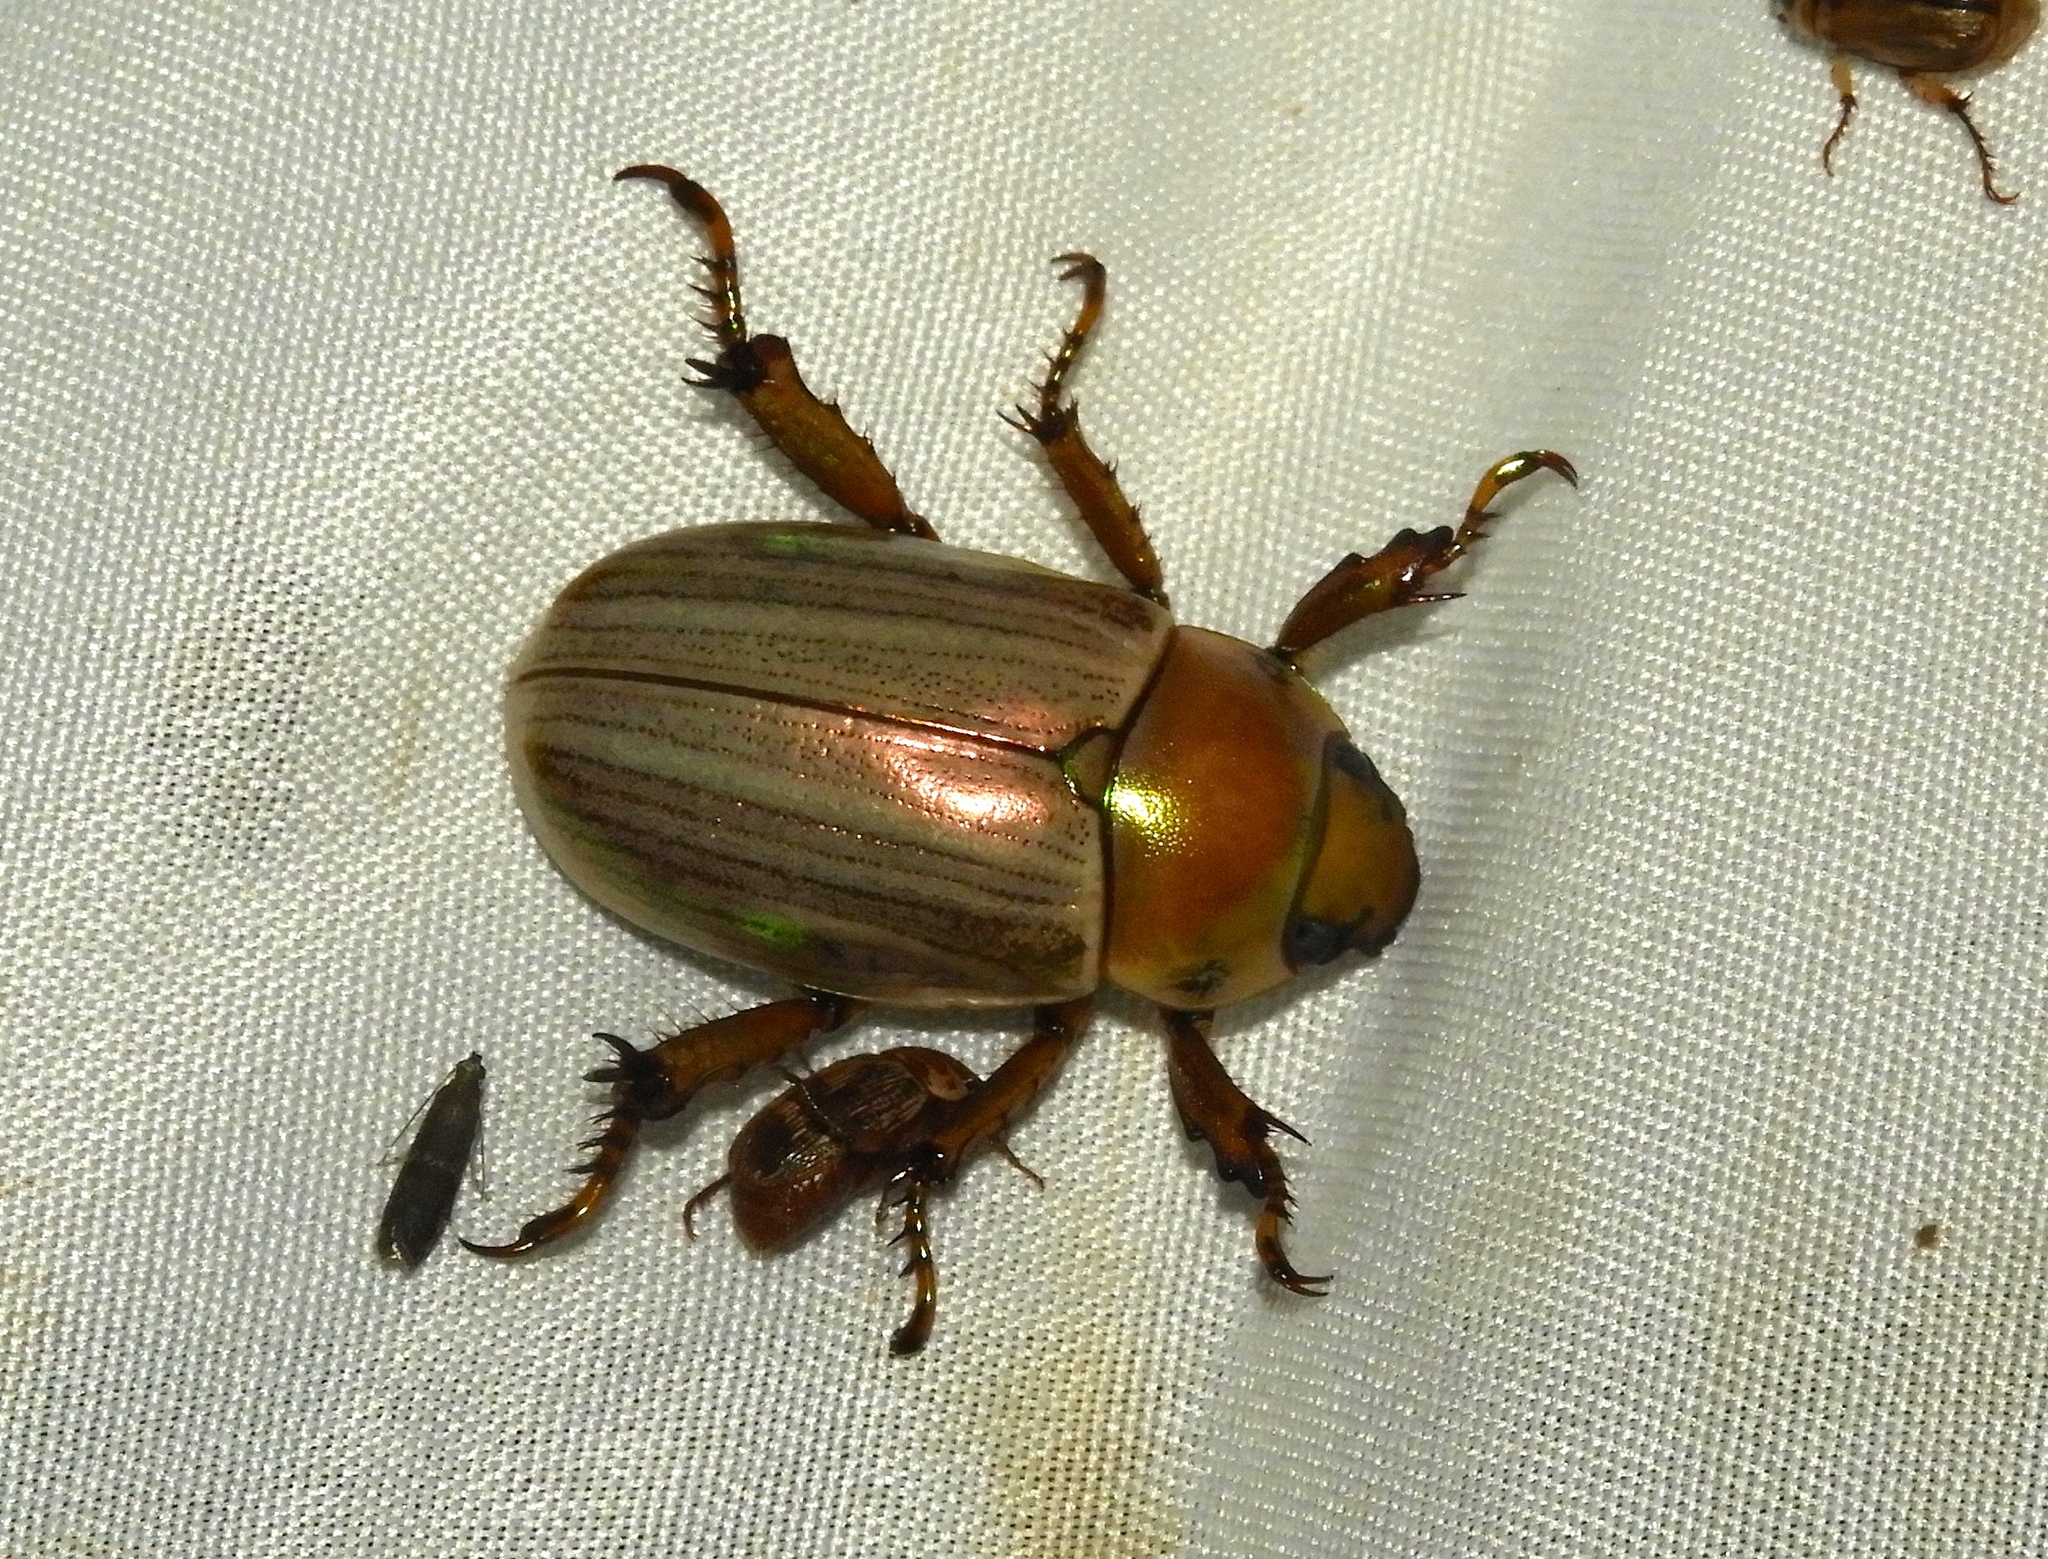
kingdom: Animalia
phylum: Arthropoda
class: Insecta
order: Coleoptera
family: Scarabaeidae
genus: Pelidnota
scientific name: Pelidnota virescens
